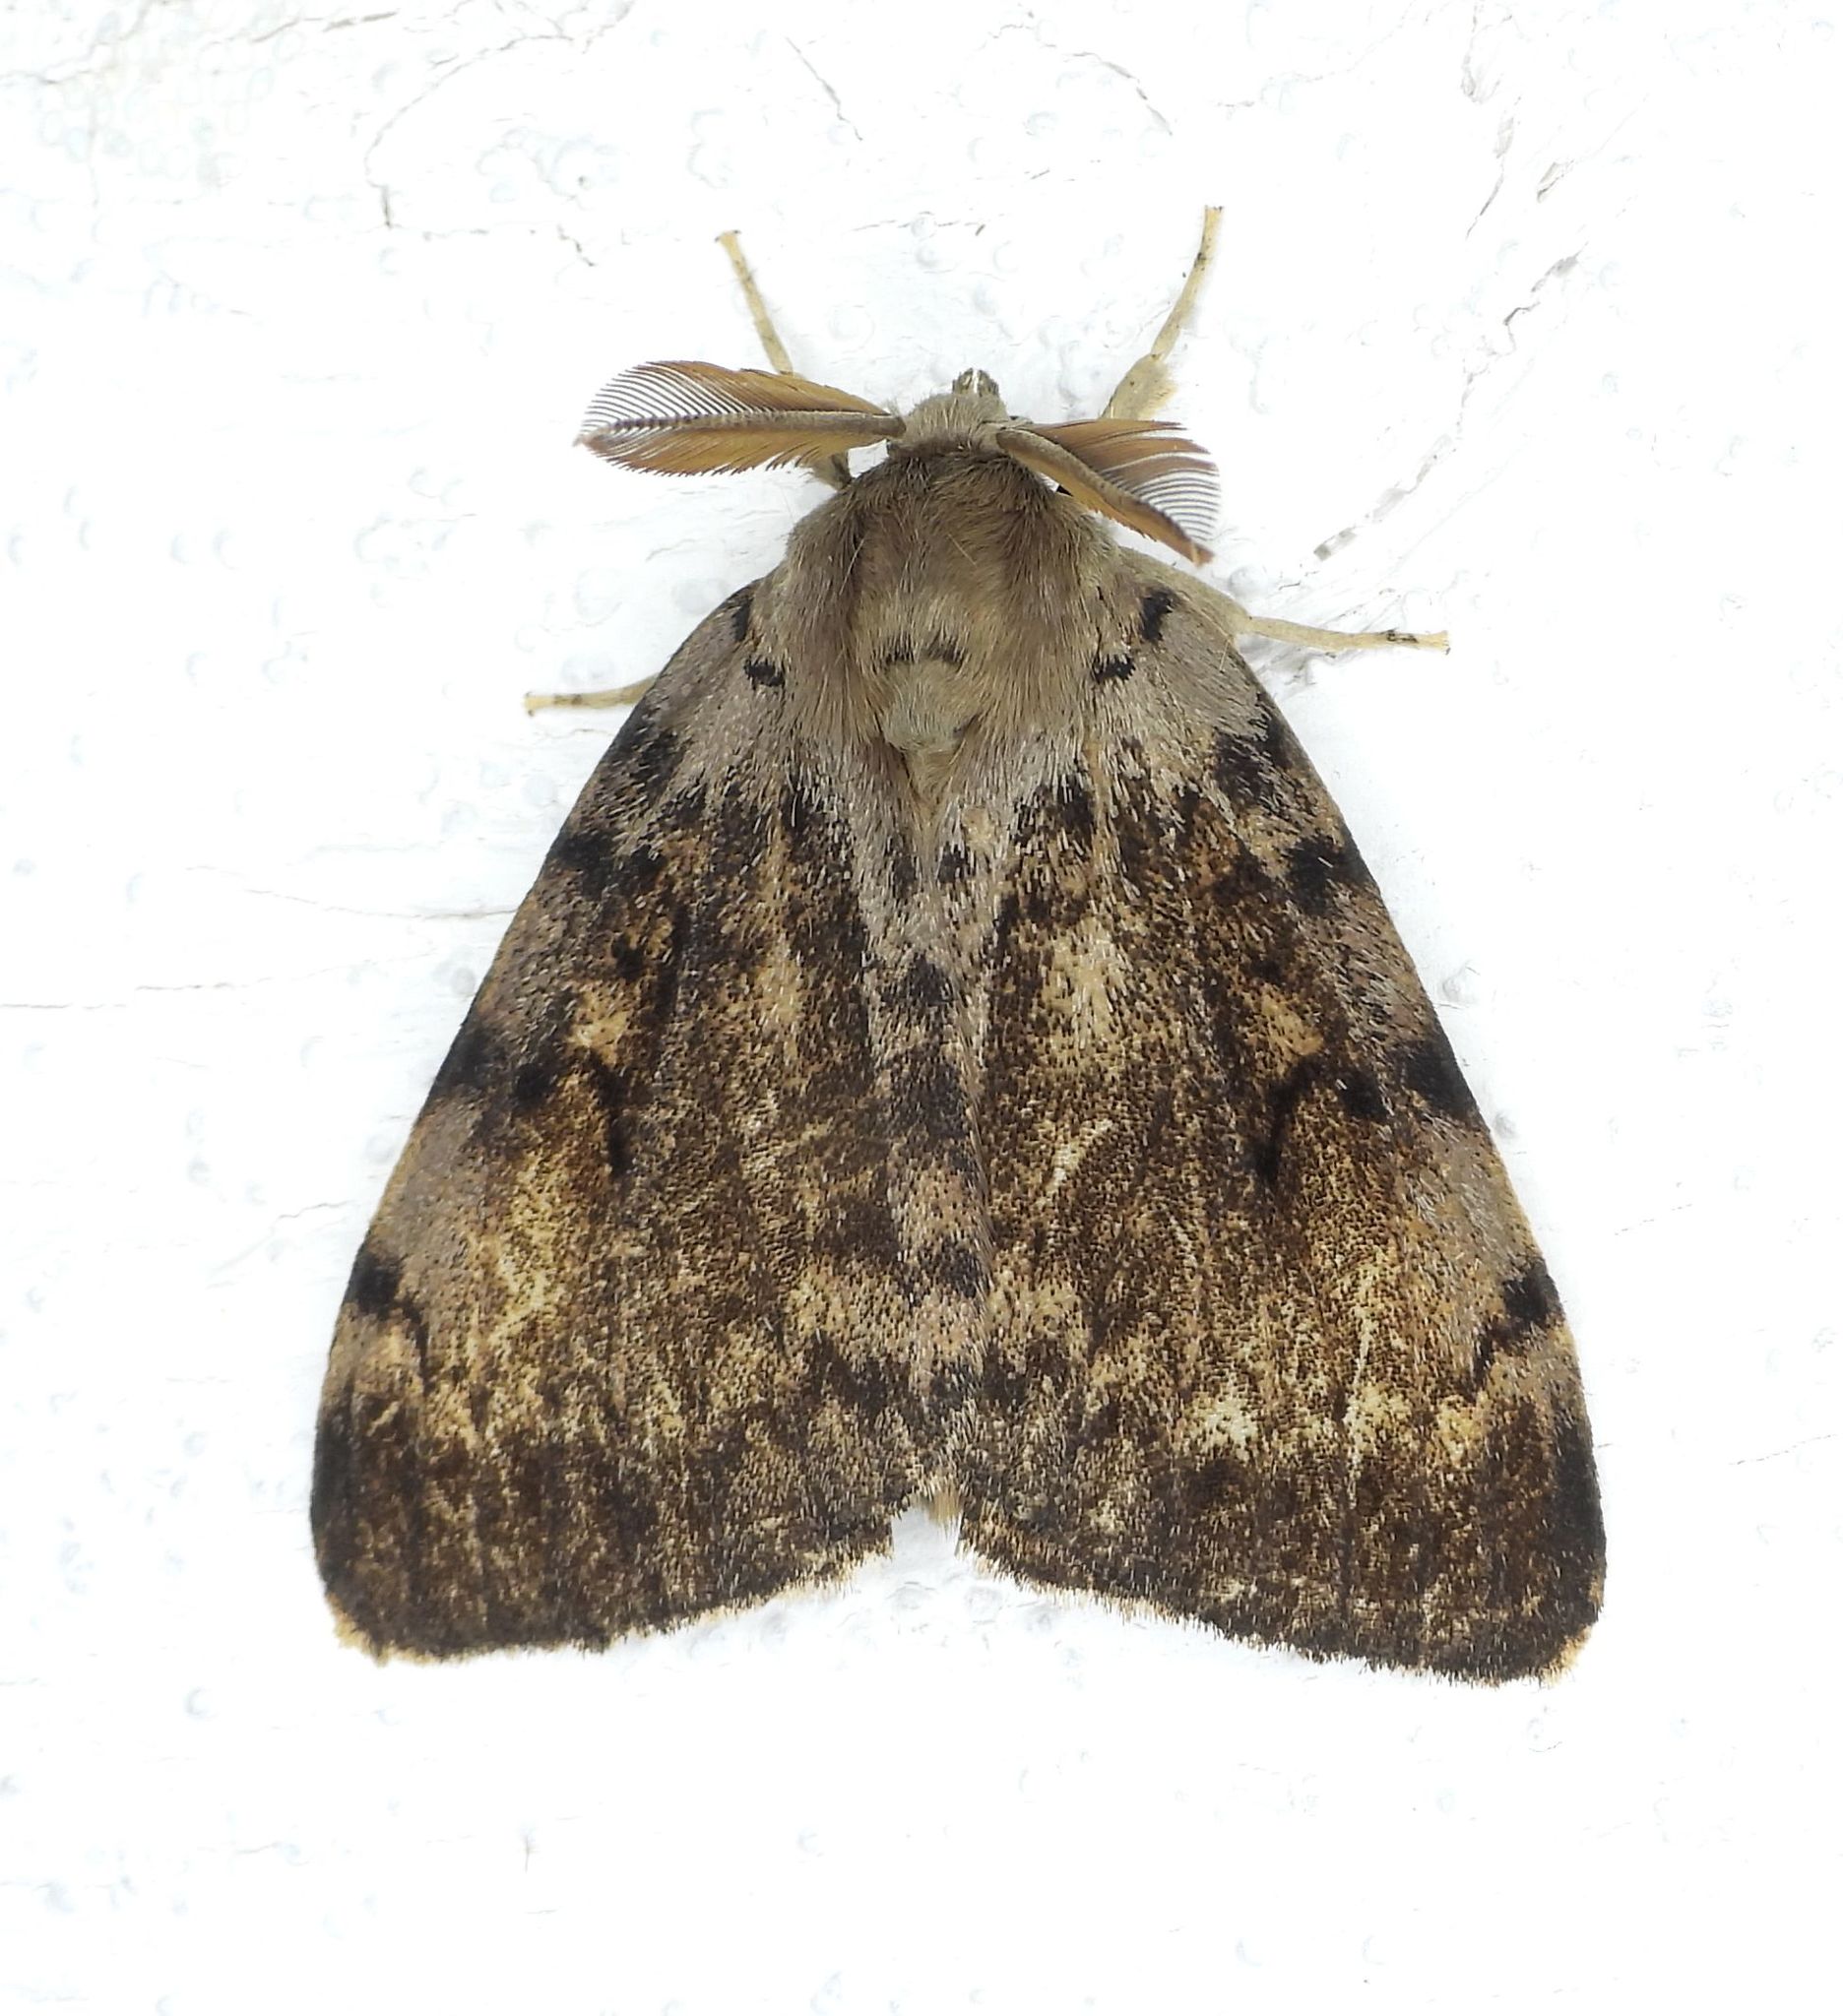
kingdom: Animalia
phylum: Arthropoda
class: Insecta
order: Lepidoptera
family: Erebidae
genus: Lymantria
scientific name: Lymantria dispar
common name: Gypsy moth
